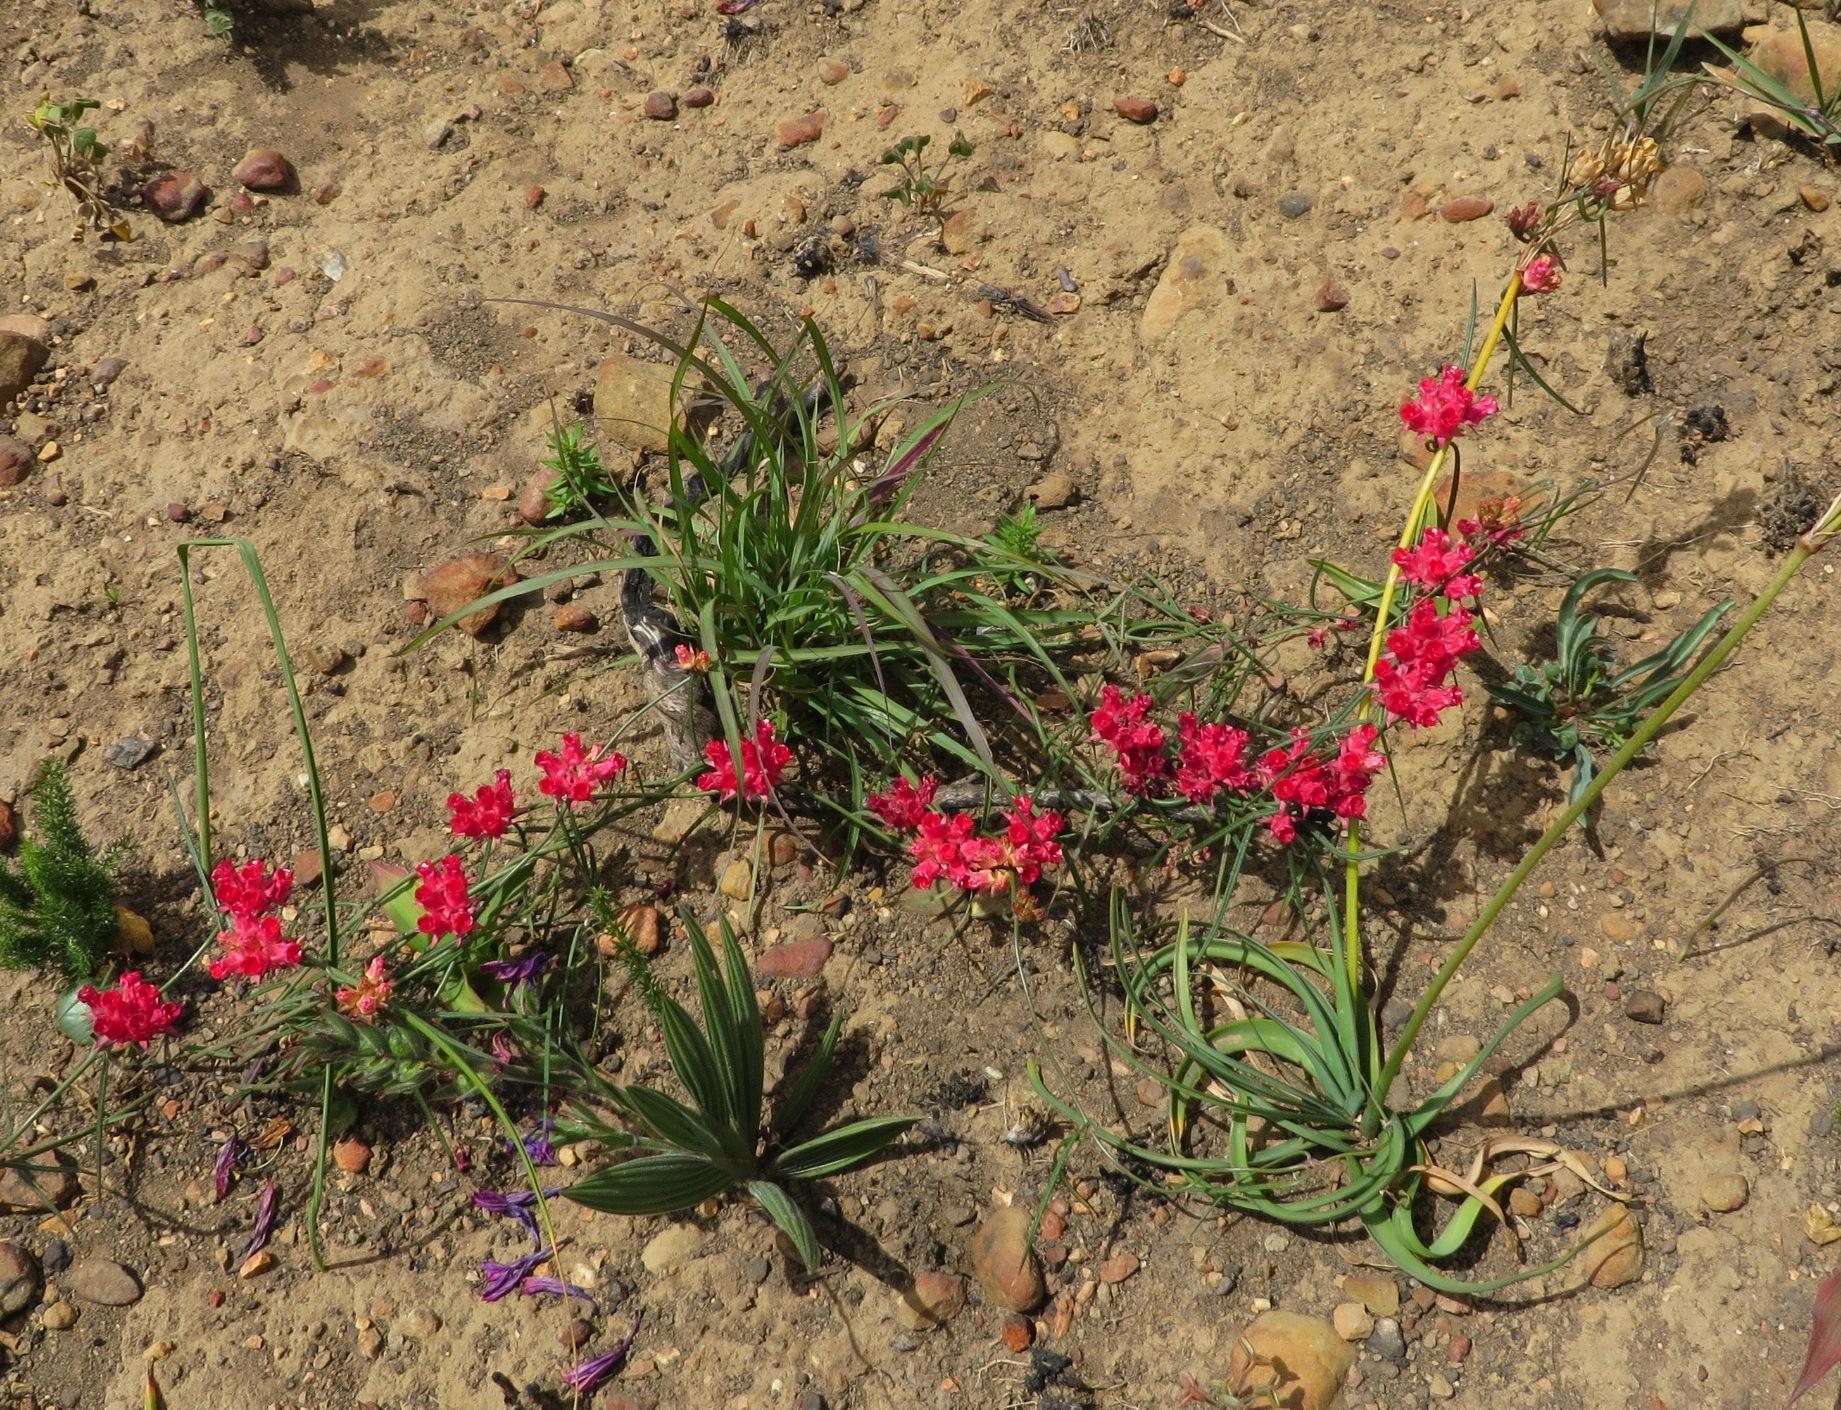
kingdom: Plantae
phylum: Tracheophyta
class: Magnoliopsida
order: Gentianales
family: Apocynaceae
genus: Microloma
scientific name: Microloma tenuifolium
